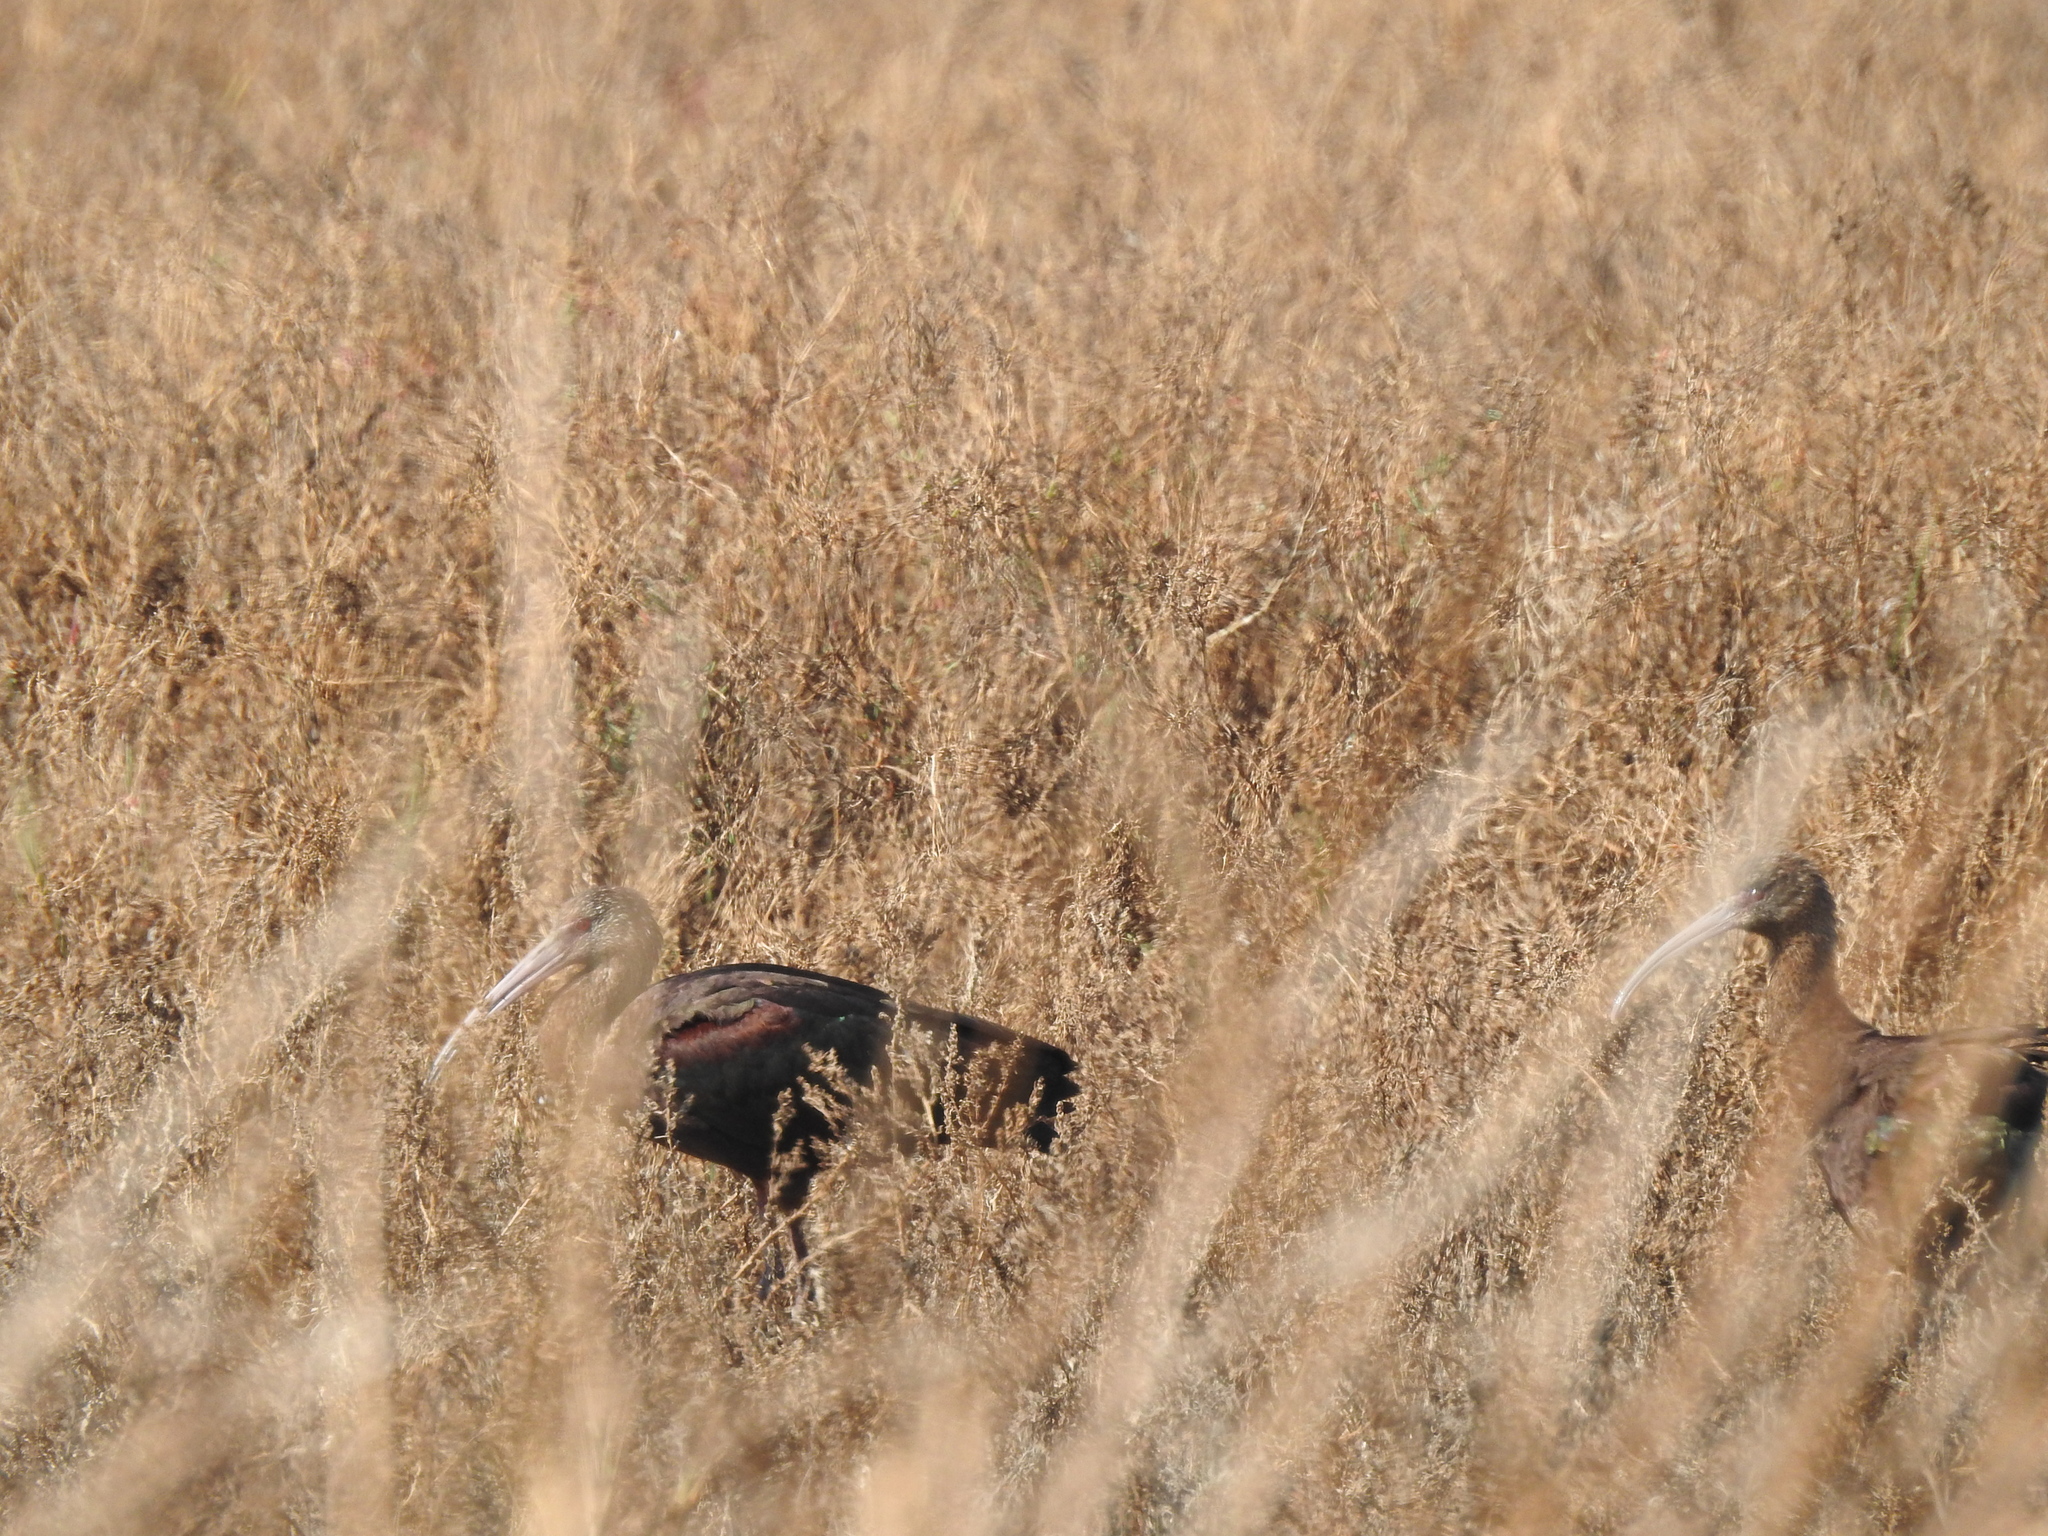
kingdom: Animalia
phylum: Chordata
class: Aves
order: Pelecaniformes
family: Threskiornithidae
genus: Plegadis
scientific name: Plegadis chihi
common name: White-faced ibis
